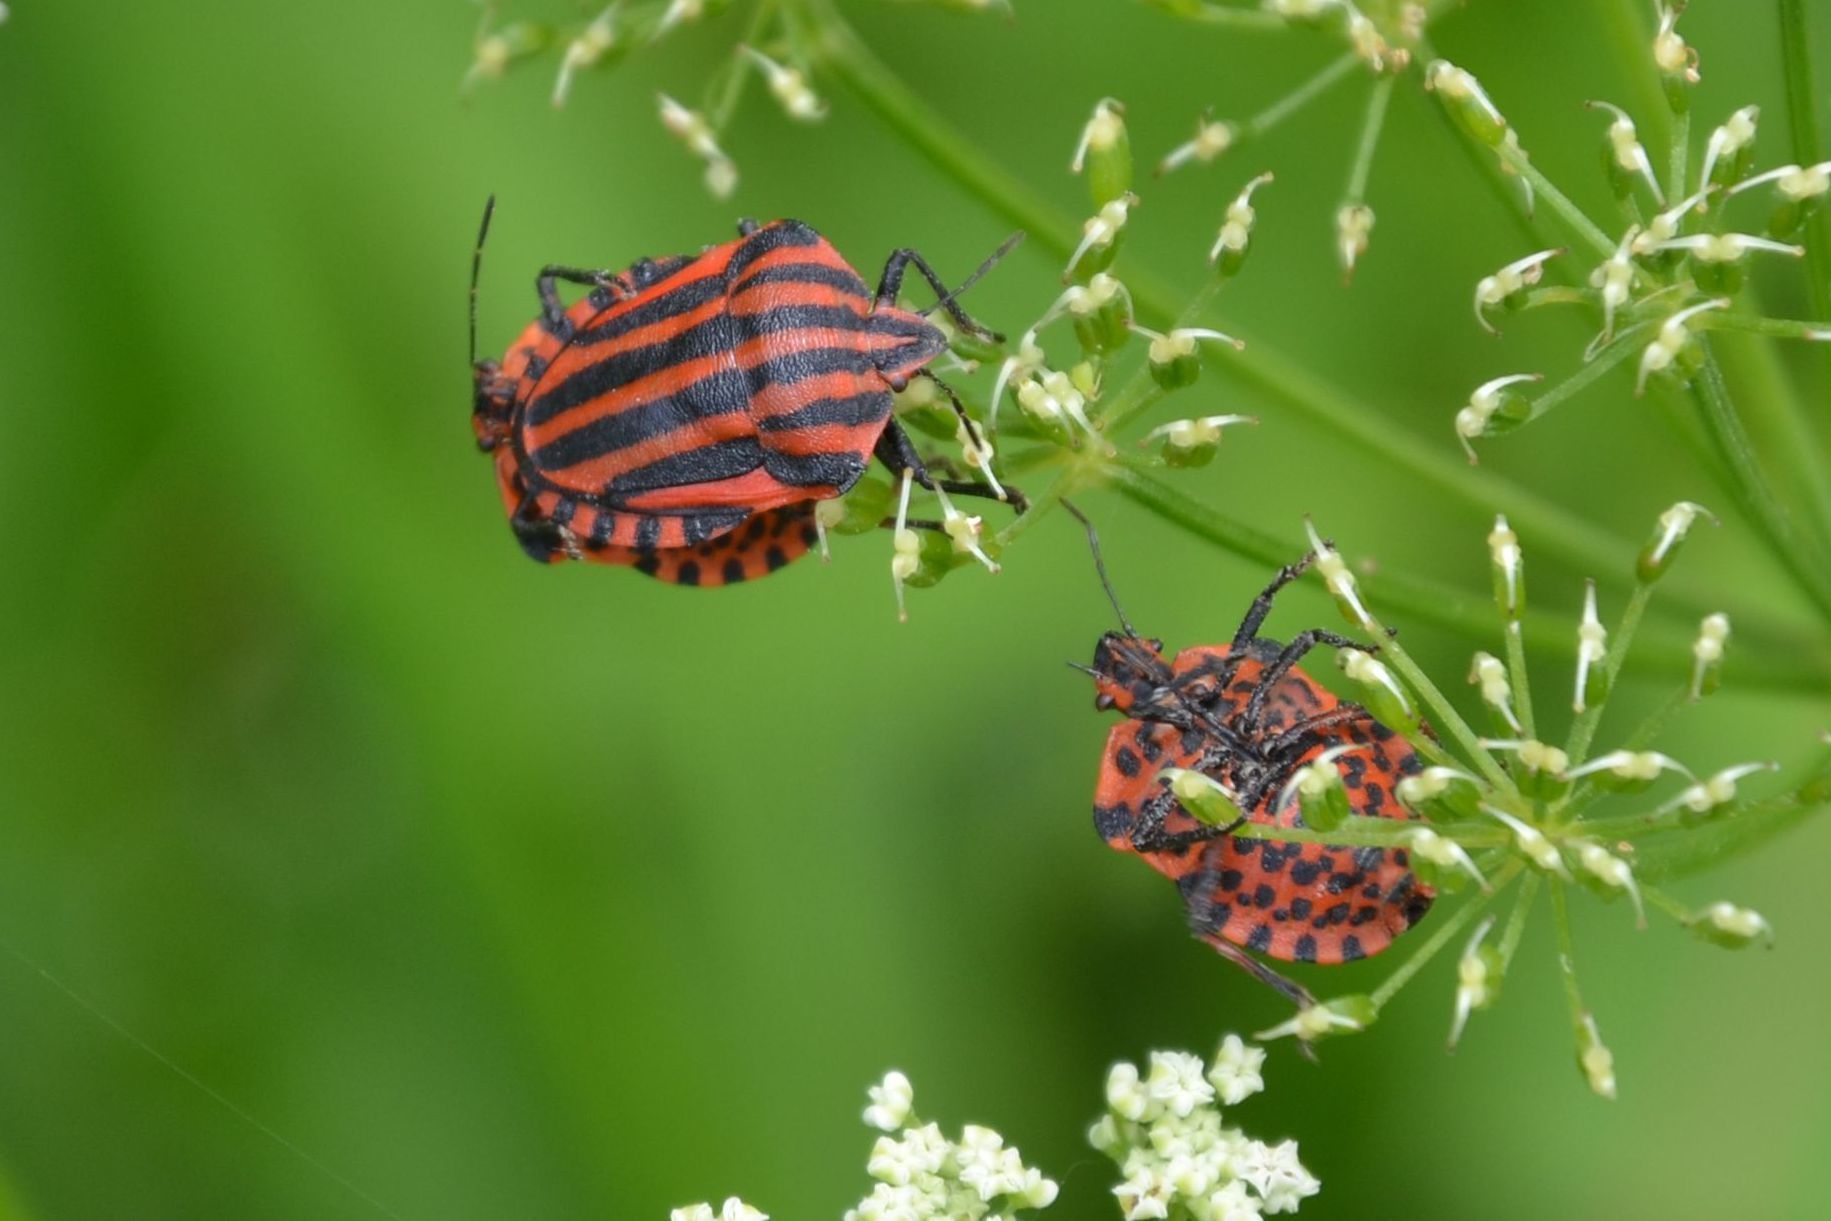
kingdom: Animalia
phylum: Arthropoda
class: Insecta
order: Hemiptera
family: Pentatomidae
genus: Graphosoma
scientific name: Graphosoma italicum
